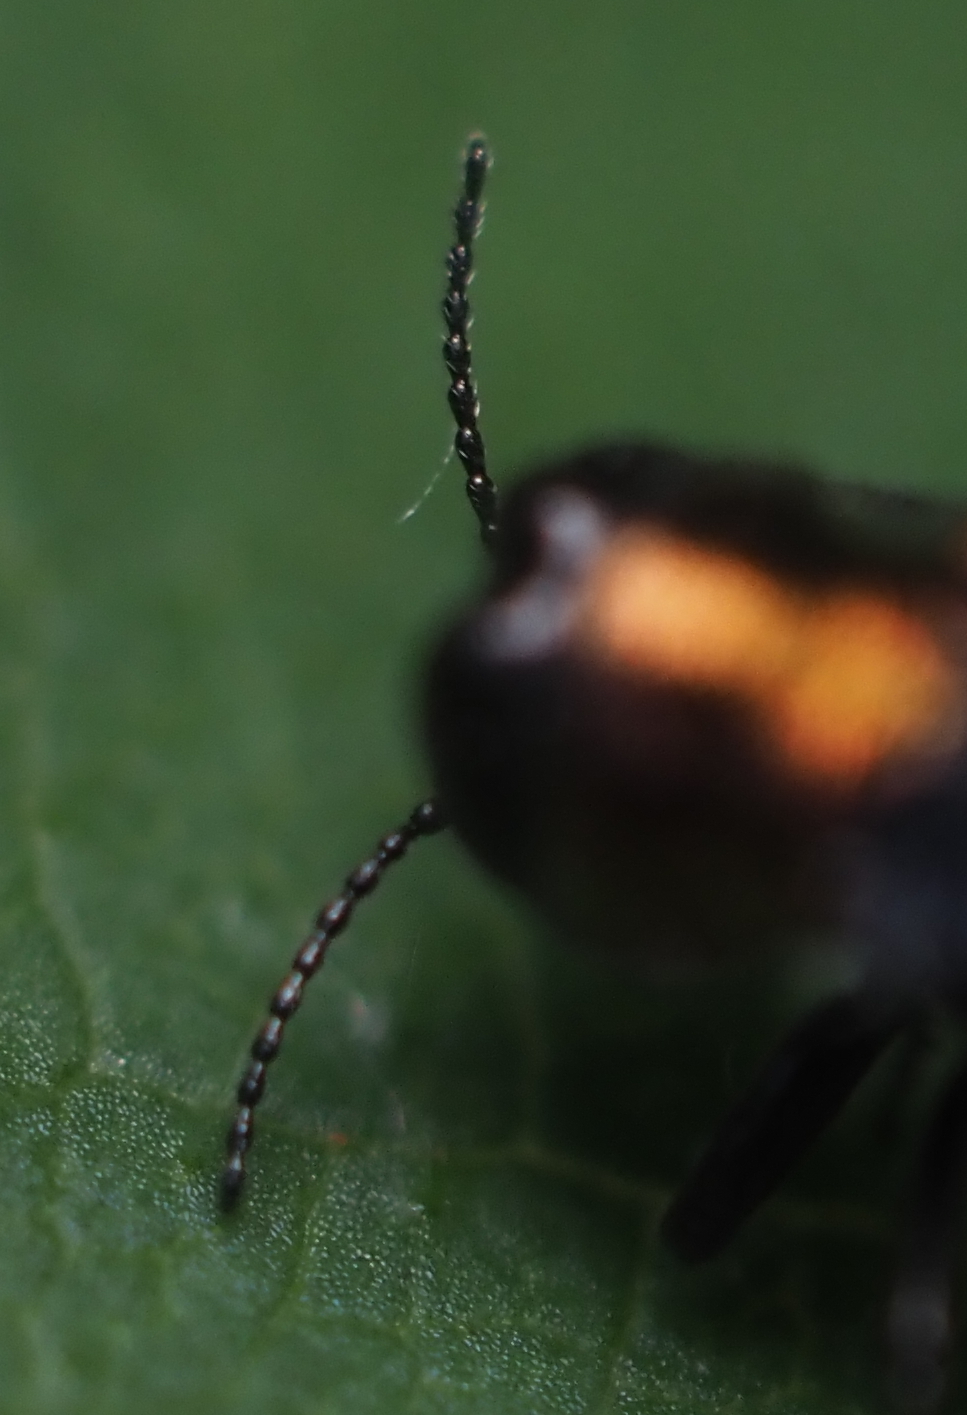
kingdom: Animalia
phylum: Arthropoda
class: Insecta
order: Coleoptera
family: Buprestidae
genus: Agrilus
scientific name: Agrilus ruficollis
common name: Red-necked cane borer beetle
